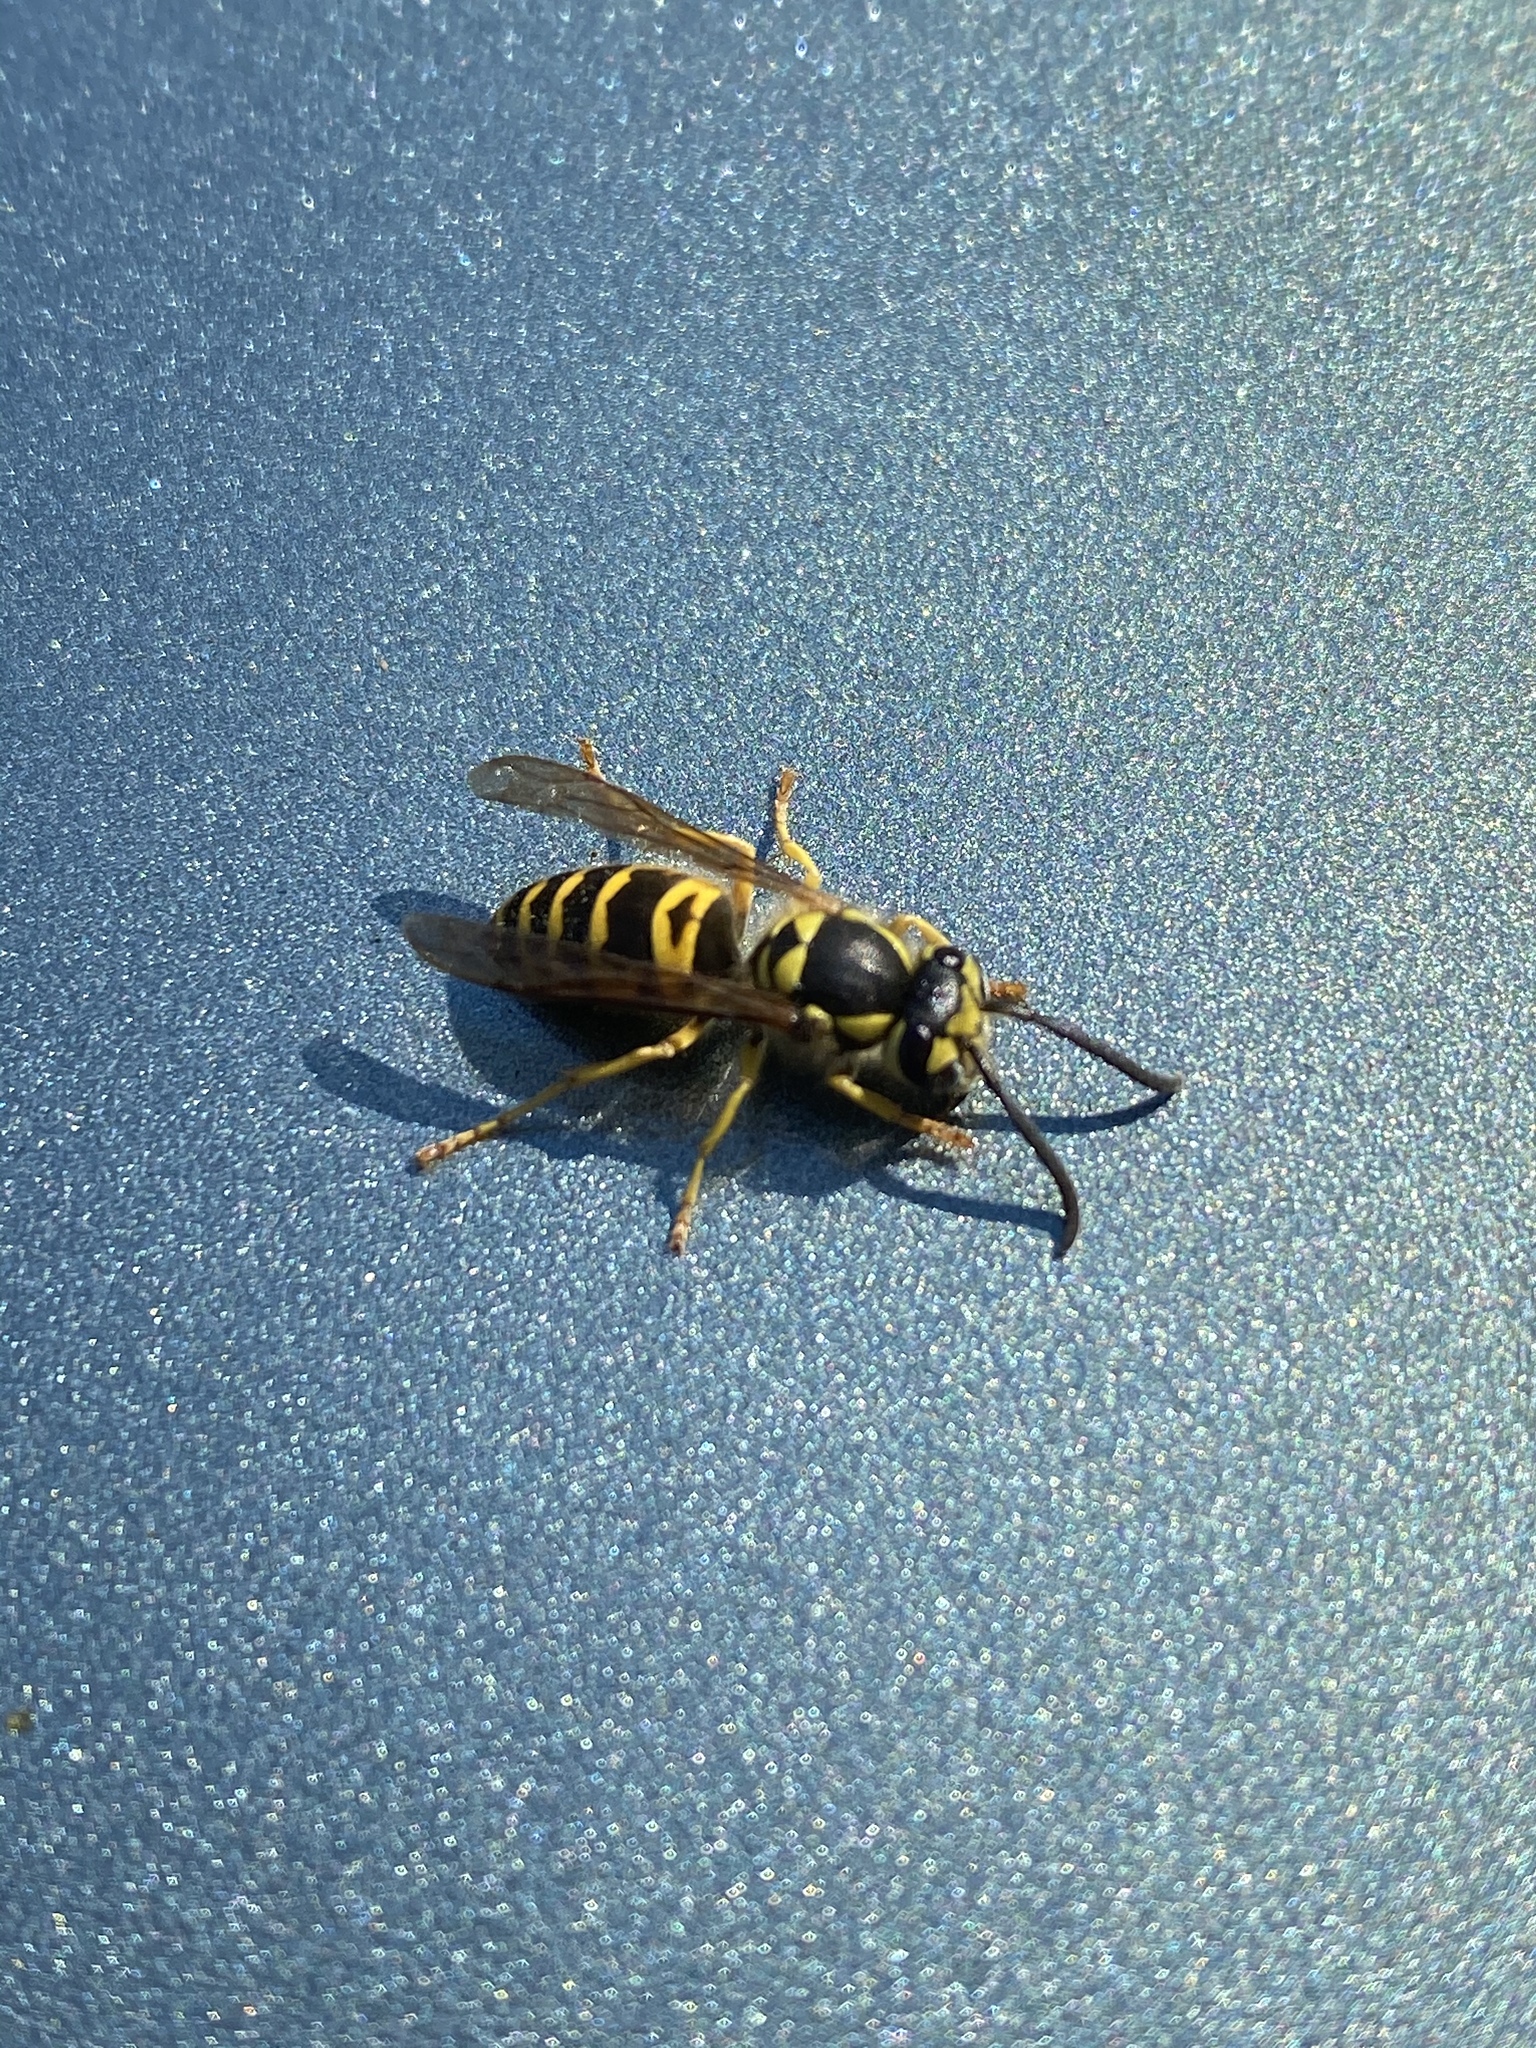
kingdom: Animalia
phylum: Arthropoda
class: Insecta
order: Hymenoptera
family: Vespidae
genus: Vespula
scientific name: Vespula maculifrons
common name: Eastern yellowjacket
